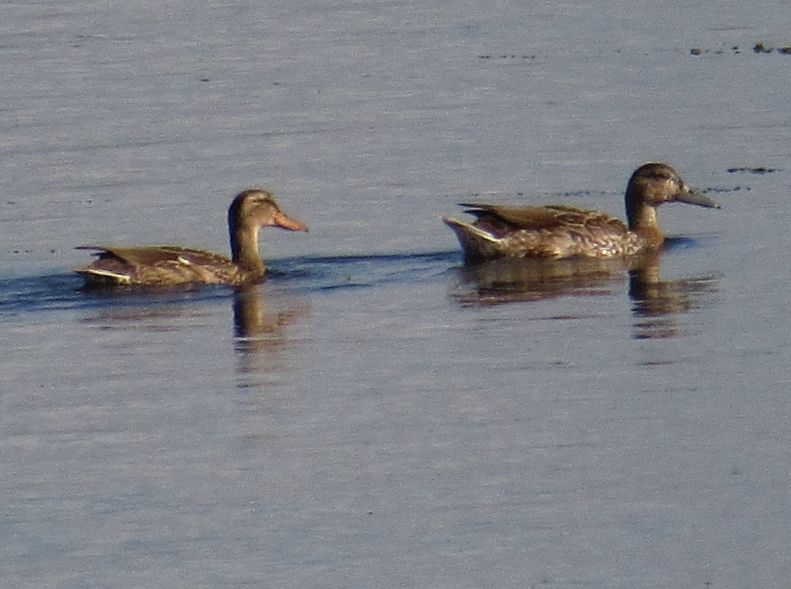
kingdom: Animalia
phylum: Chordata
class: Aves
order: Anseriformes
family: Anatidae
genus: Anas
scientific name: Anas platyrhynchos
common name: Mallard
